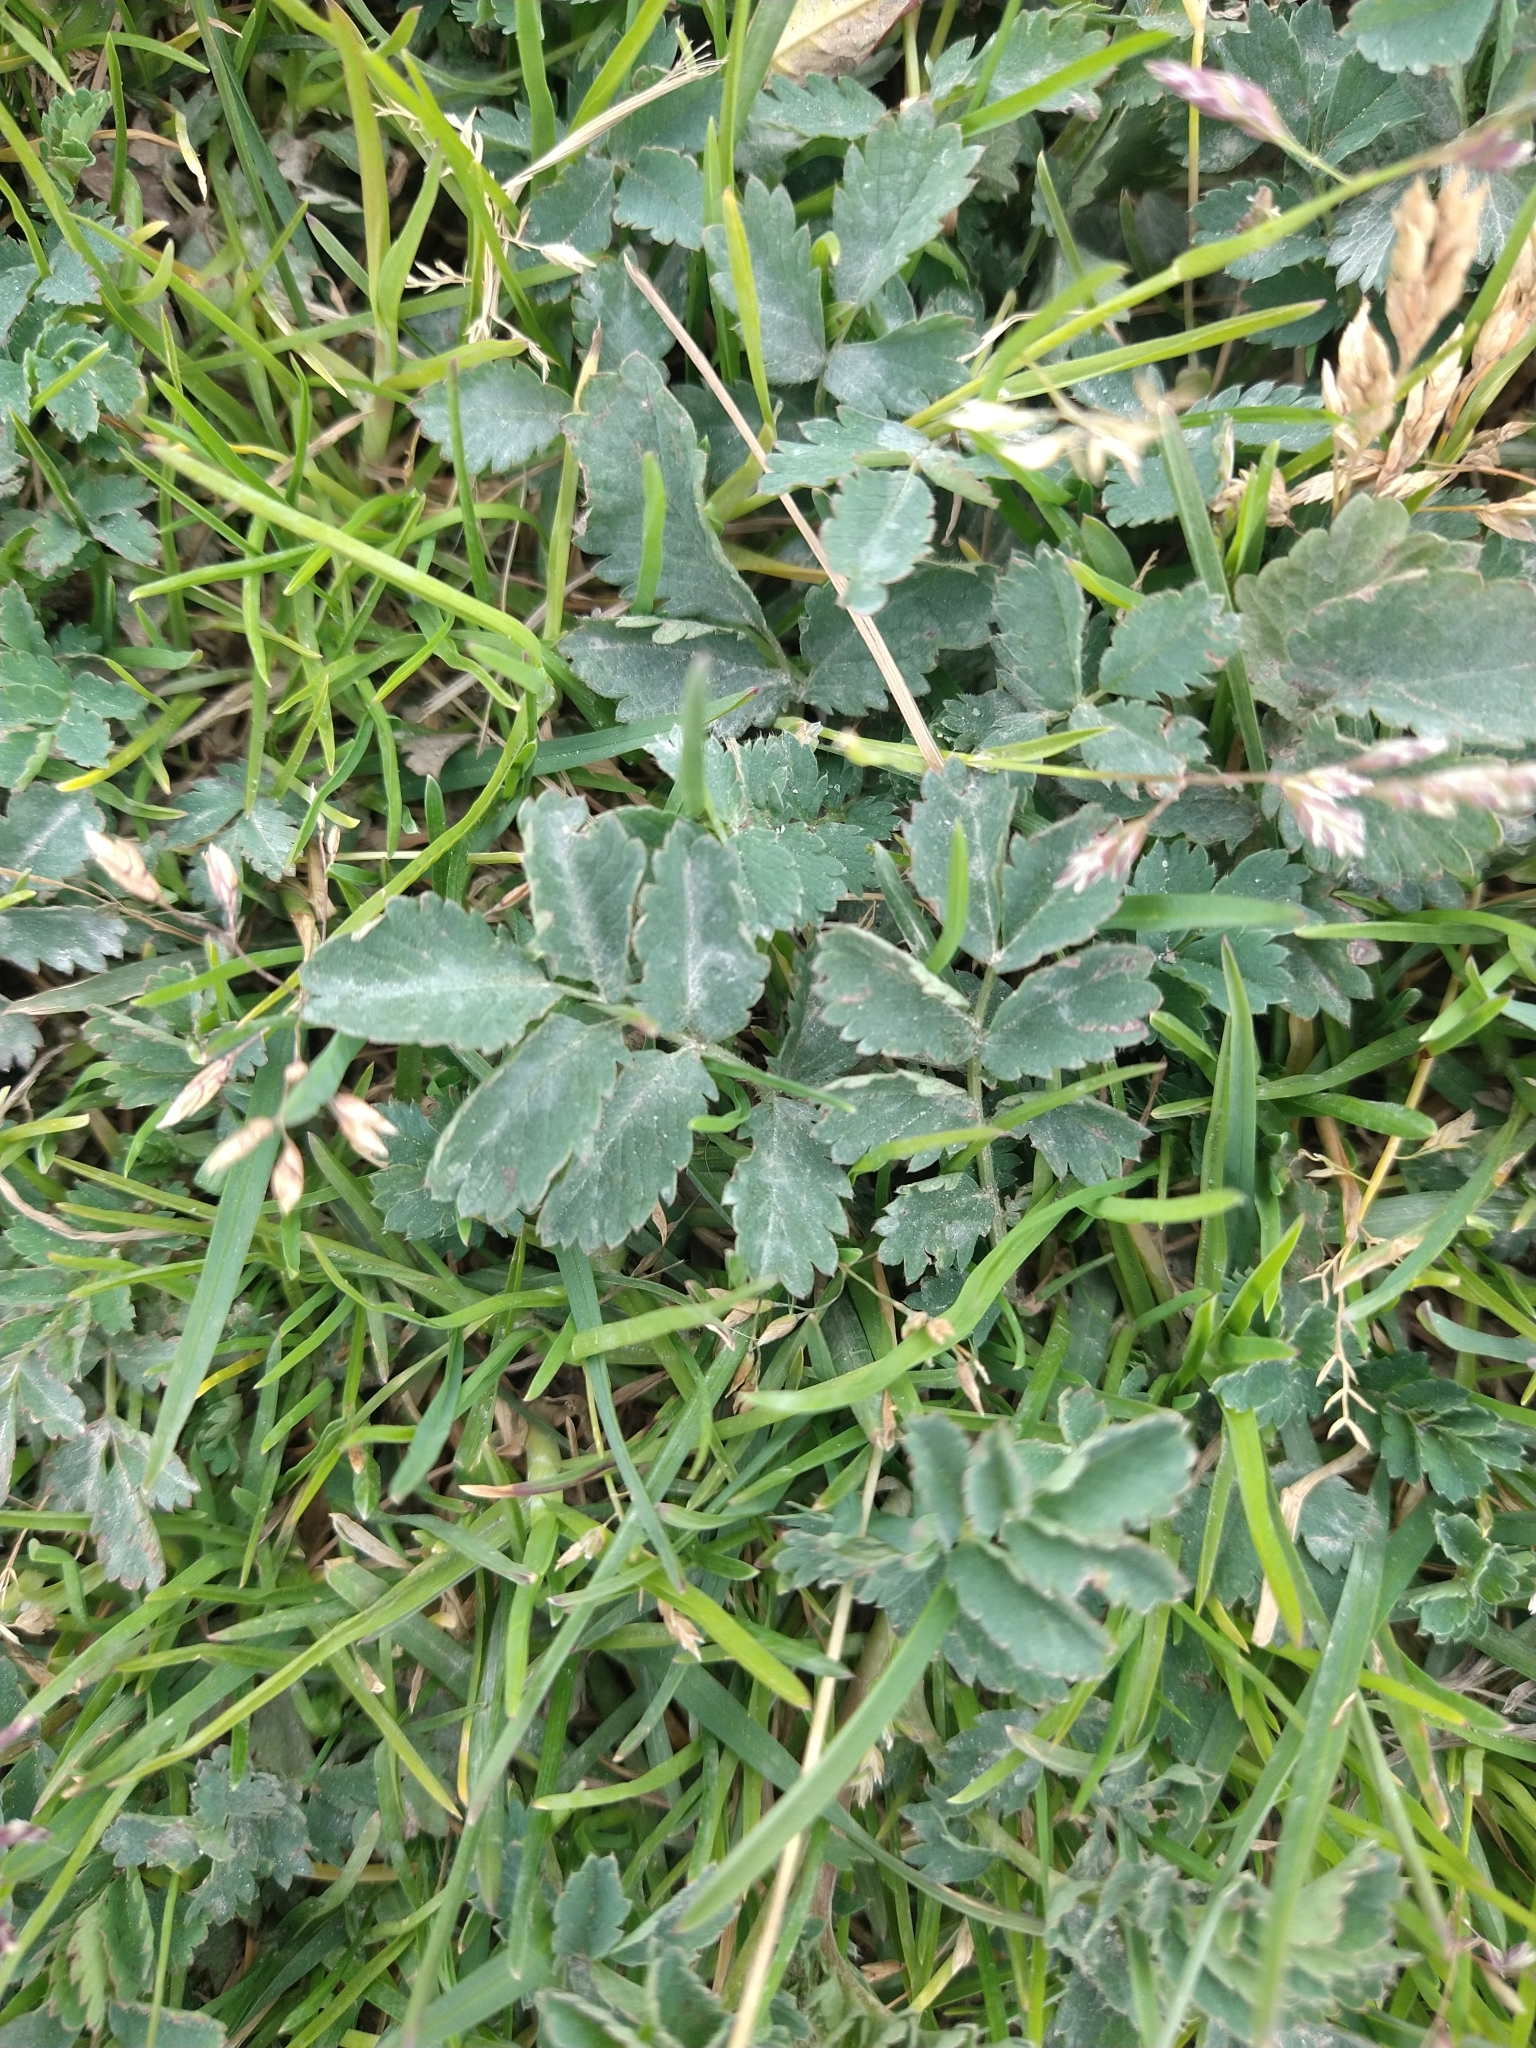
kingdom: Plantae
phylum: Tracheophyta
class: Magnoliopsida
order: Rosales
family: Rosaceae
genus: Acaena
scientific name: Acaena magellanica
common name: New zealand burr
